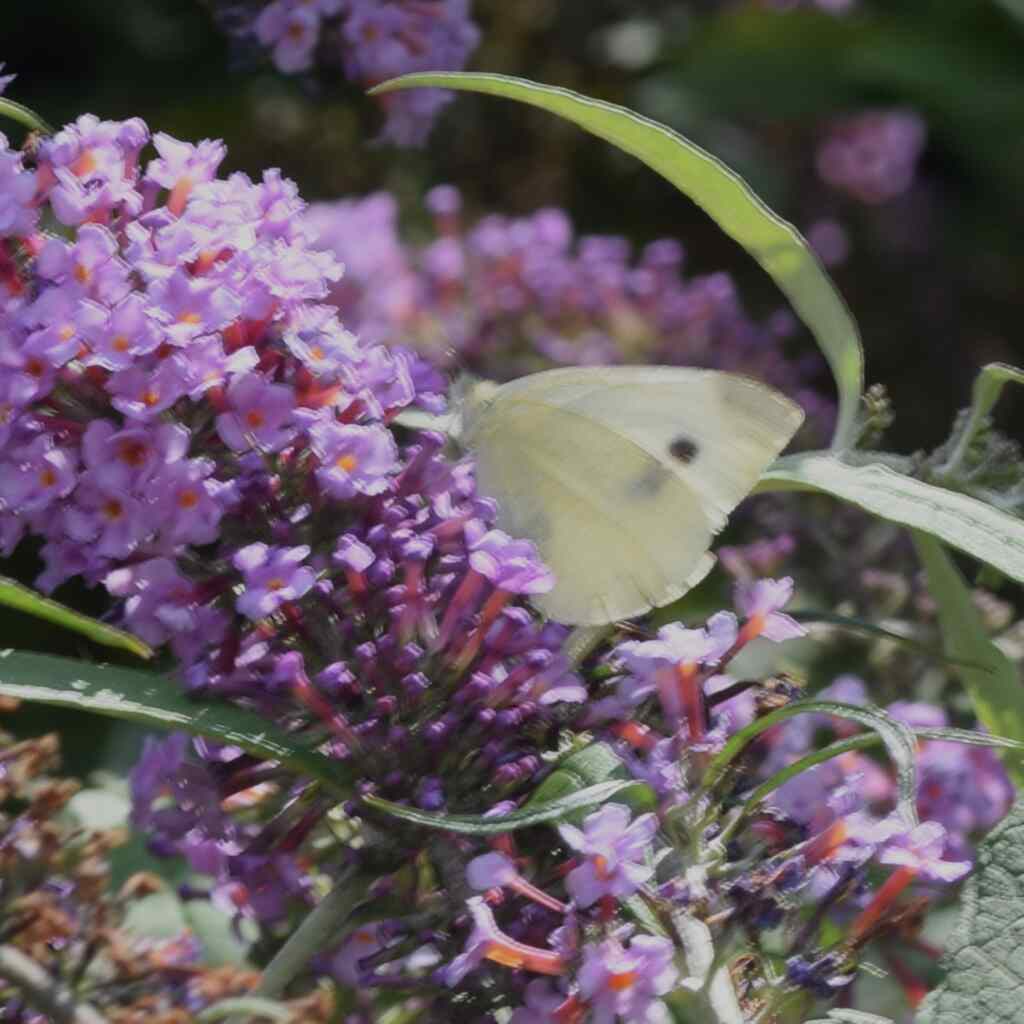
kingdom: Animalia
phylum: Arthropoda
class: Insecta
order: Lepidoptera
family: Pieridae
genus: Pieris
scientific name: Pieris rapae
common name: Small white
